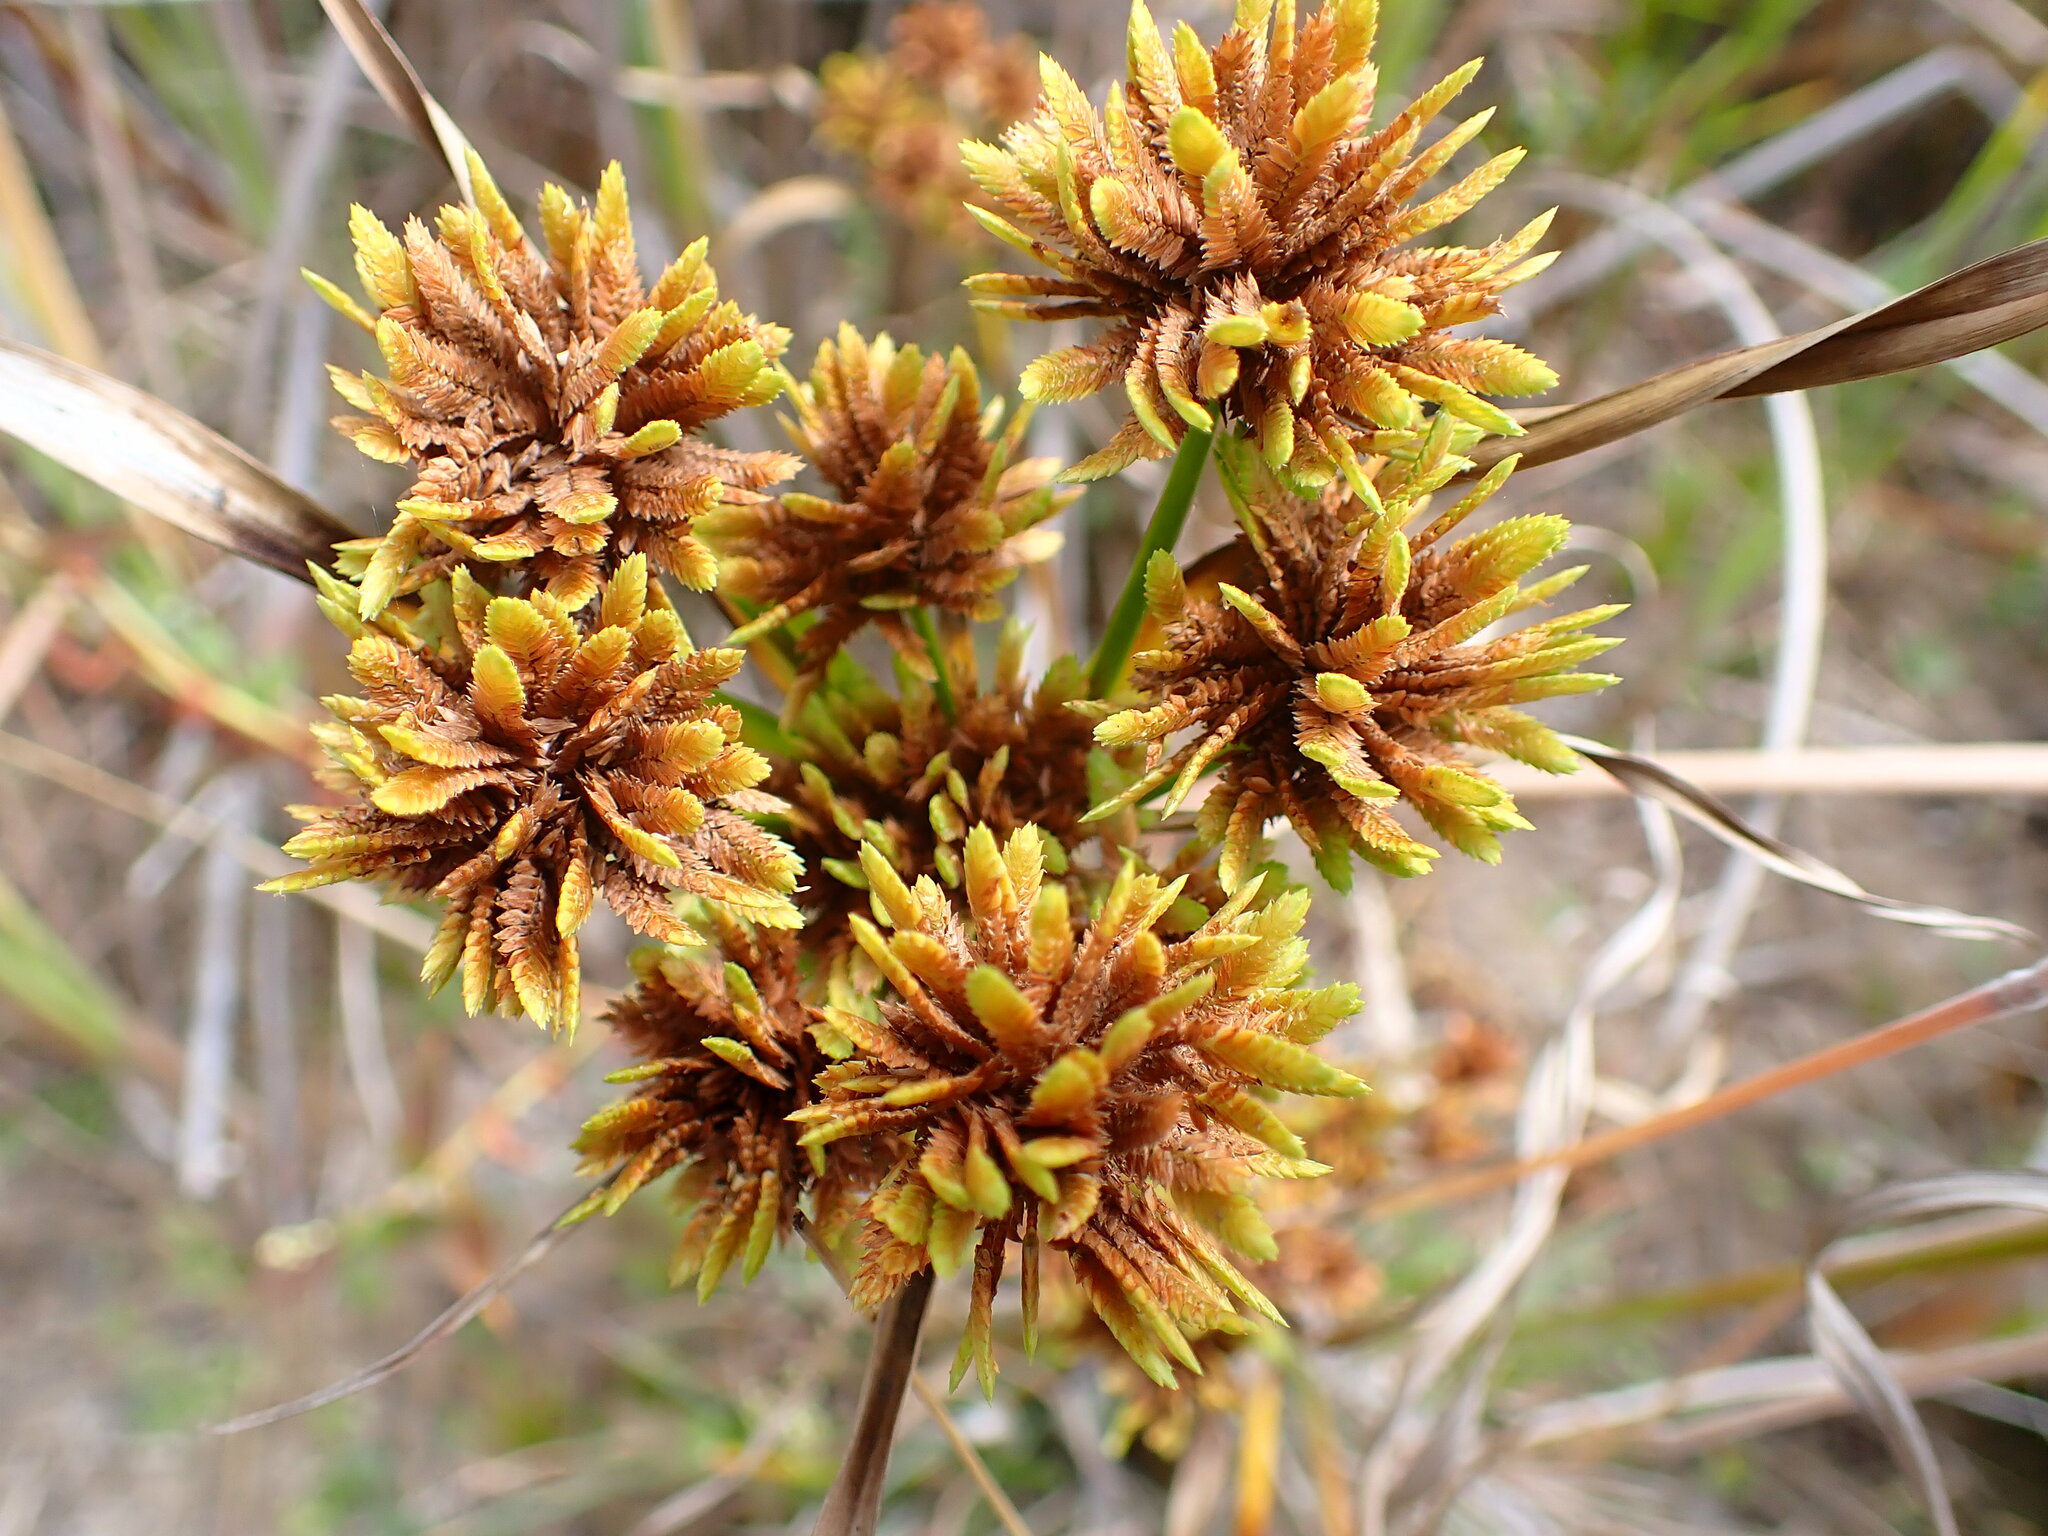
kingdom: Plantae
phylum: Tracheophyta
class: Liliopsida
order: Poales
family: Cyperaceae
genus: Cyperus
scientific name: Cyperus eragrostis
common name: Tall flatsedge
